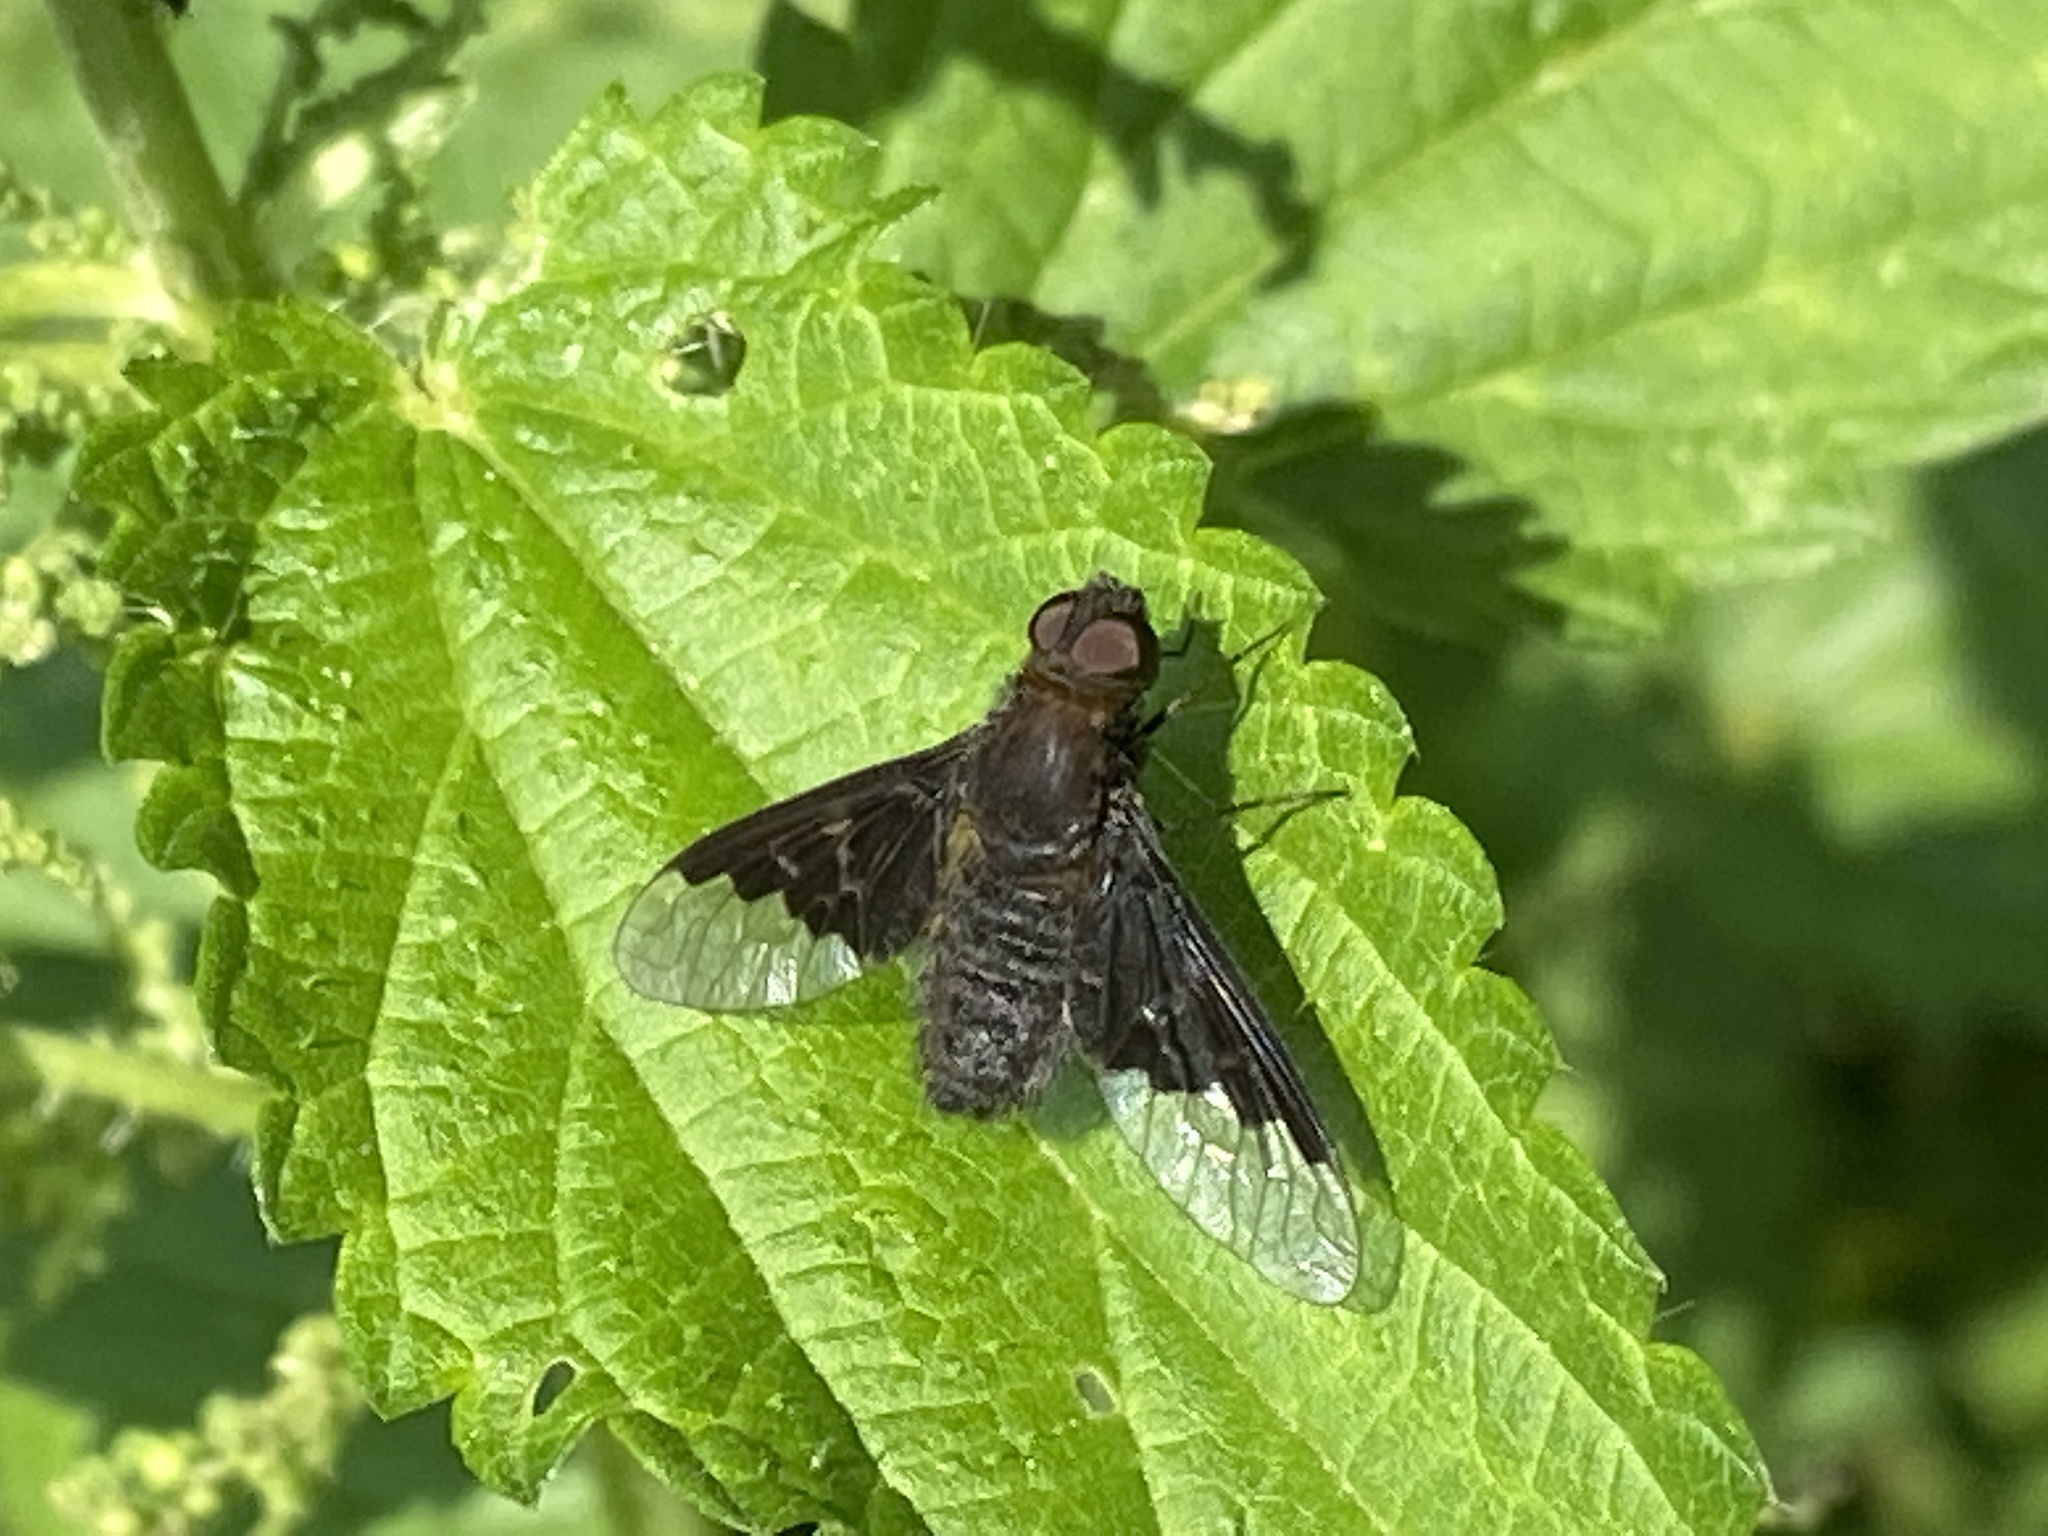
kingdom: Animalia
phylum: Arthropoda
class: Insecta
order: Diptera
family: Bombyliidae
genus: Hemipenthes
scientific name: Hemipenthes morio
